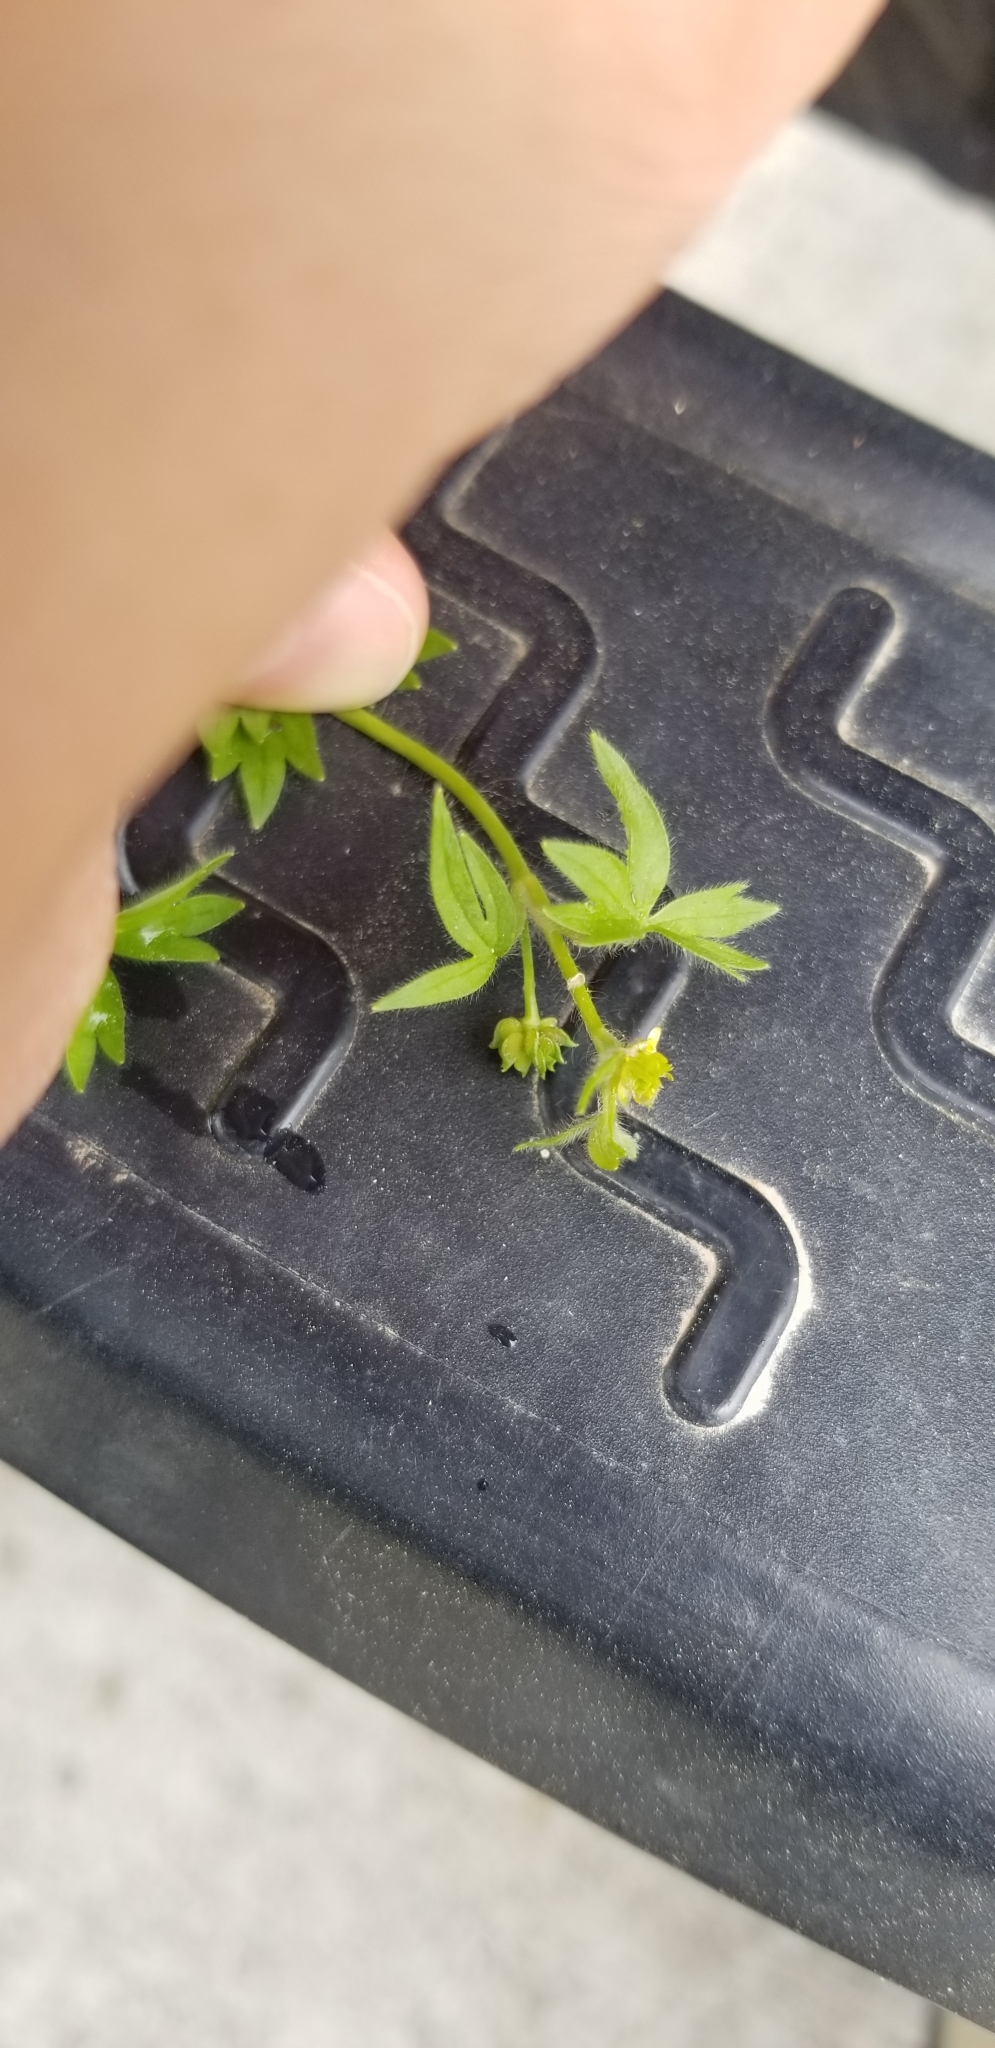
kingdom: Plantae
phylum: Tracheophyta
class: Magnoliopsida
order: Ranunculales
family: Ranunculaceae
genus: Ranunculus
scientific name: Ranunculus parviflorus
